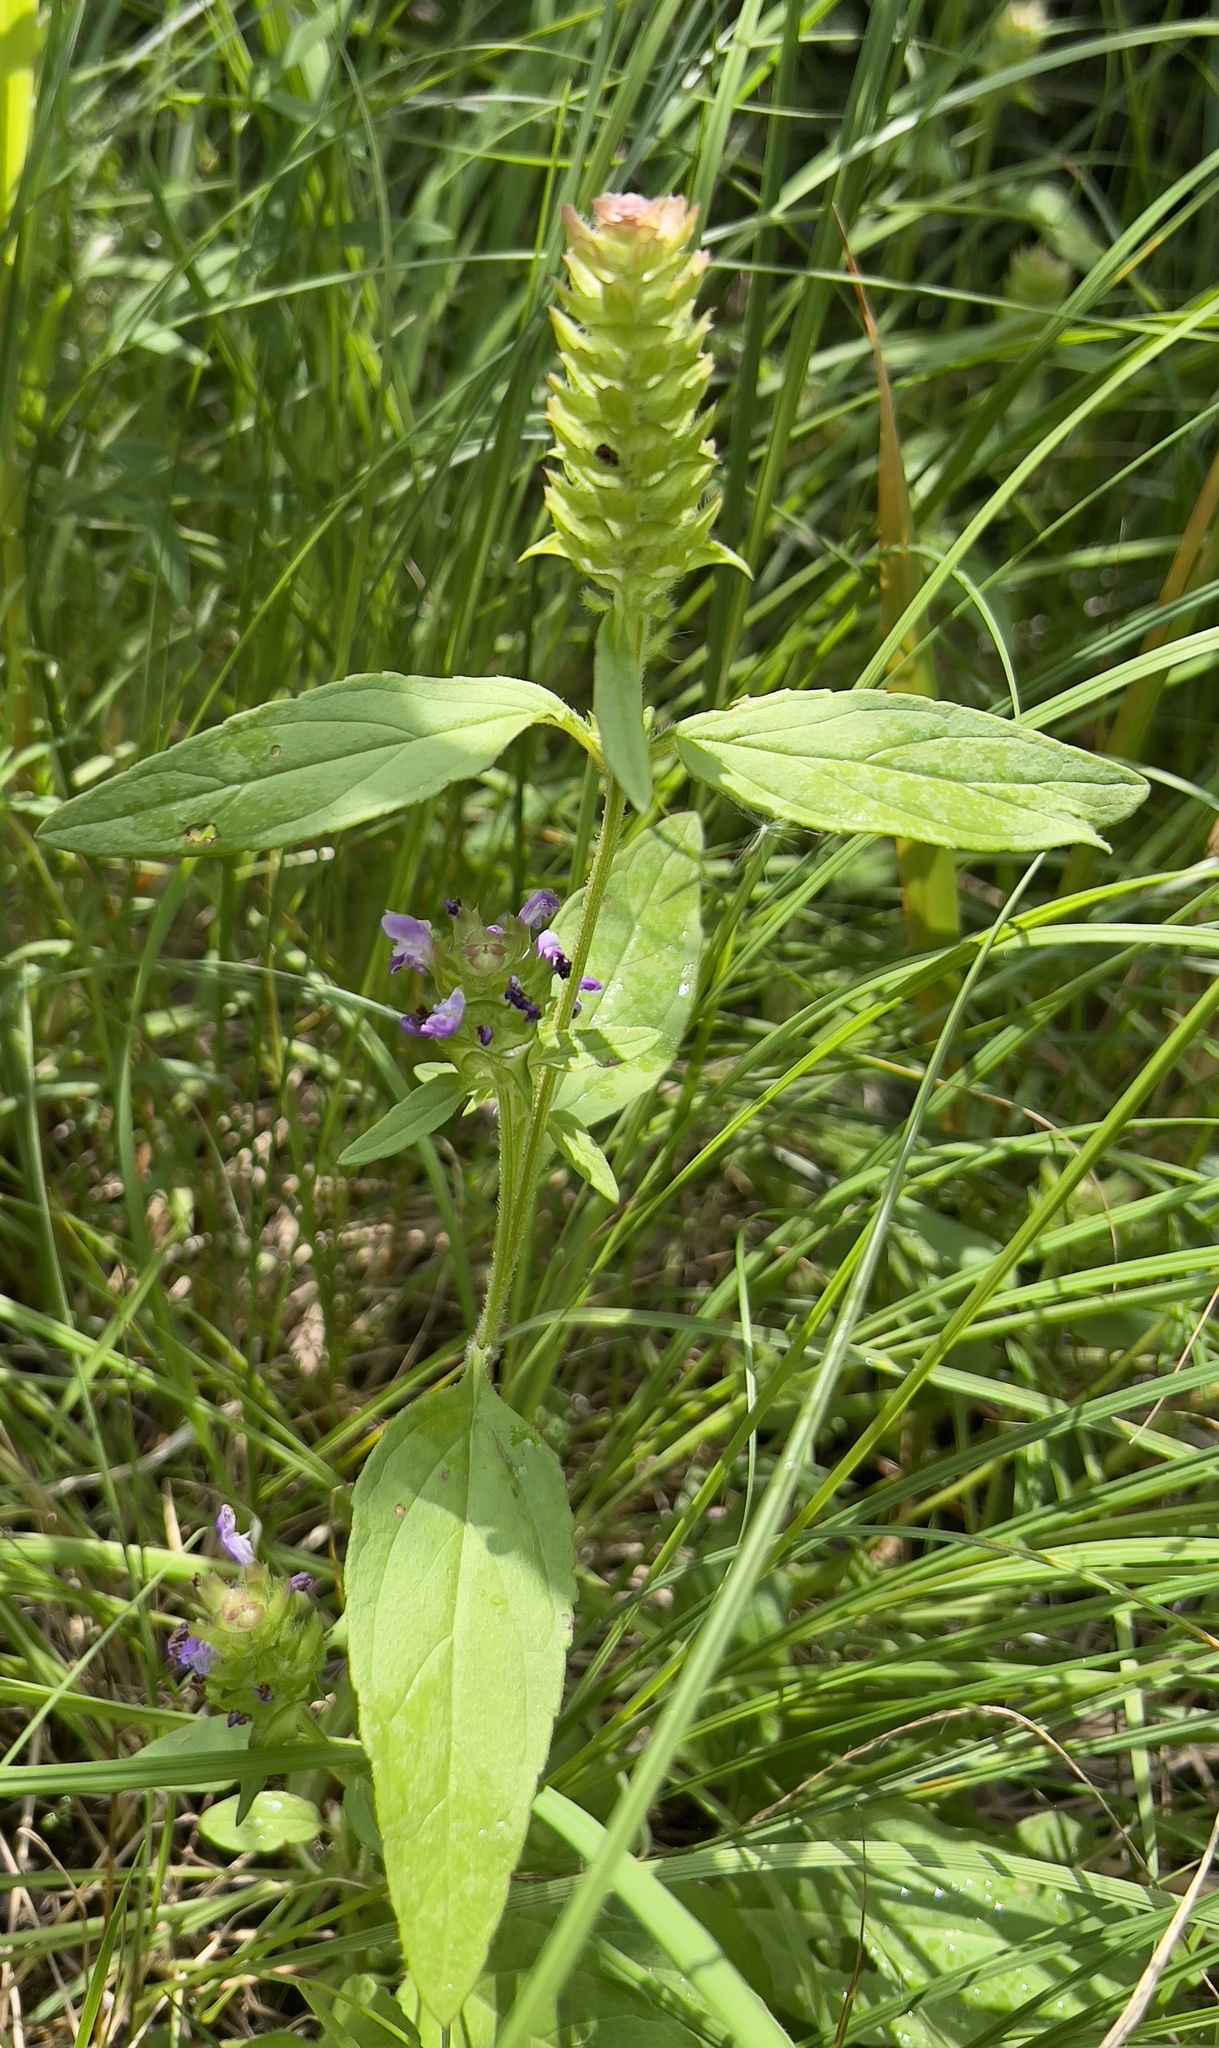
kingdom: Plantae
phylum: Tracheophyta
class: Magnoliopsida
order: Lamiales
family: Lamiaceae
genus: Prunella
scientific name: Prunella vulgaris
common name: Heal-all
